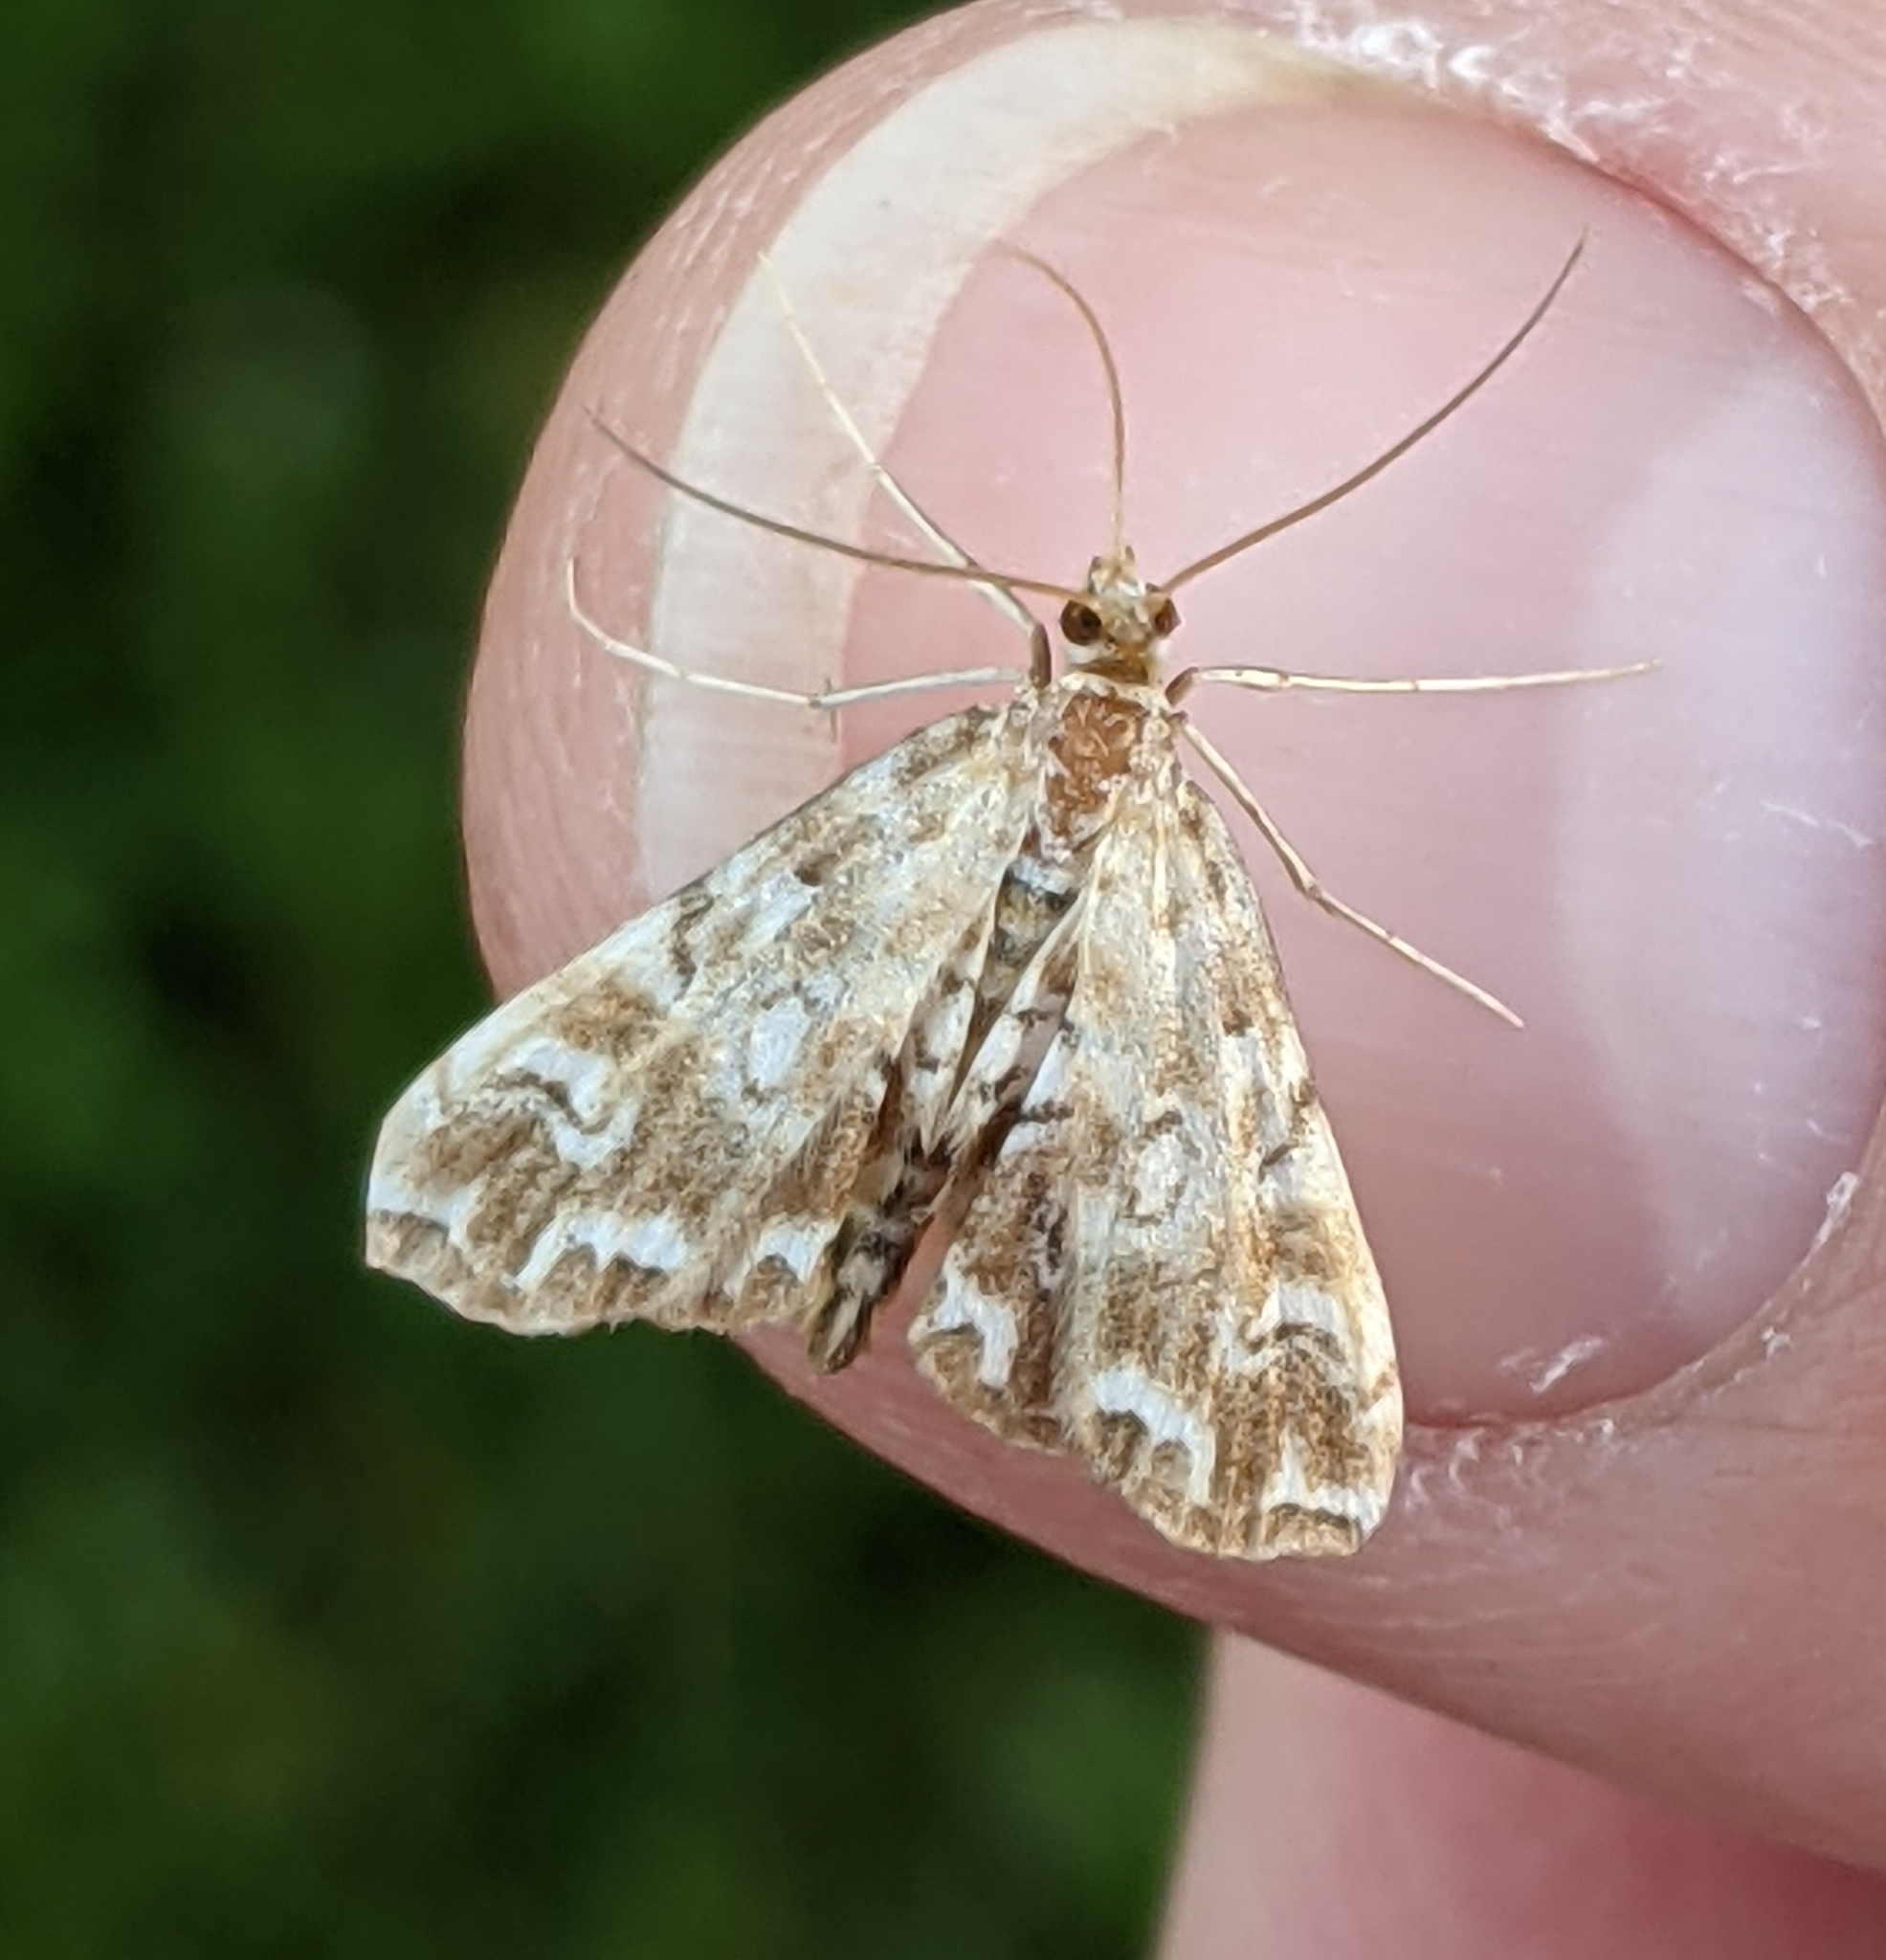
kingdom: Animalia
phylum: Arthropoda
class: Insecta
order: Lepidoptera
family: Crambidae
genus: Elophila
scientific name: Elophila icciusalis
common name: Pondside pyralid moth
